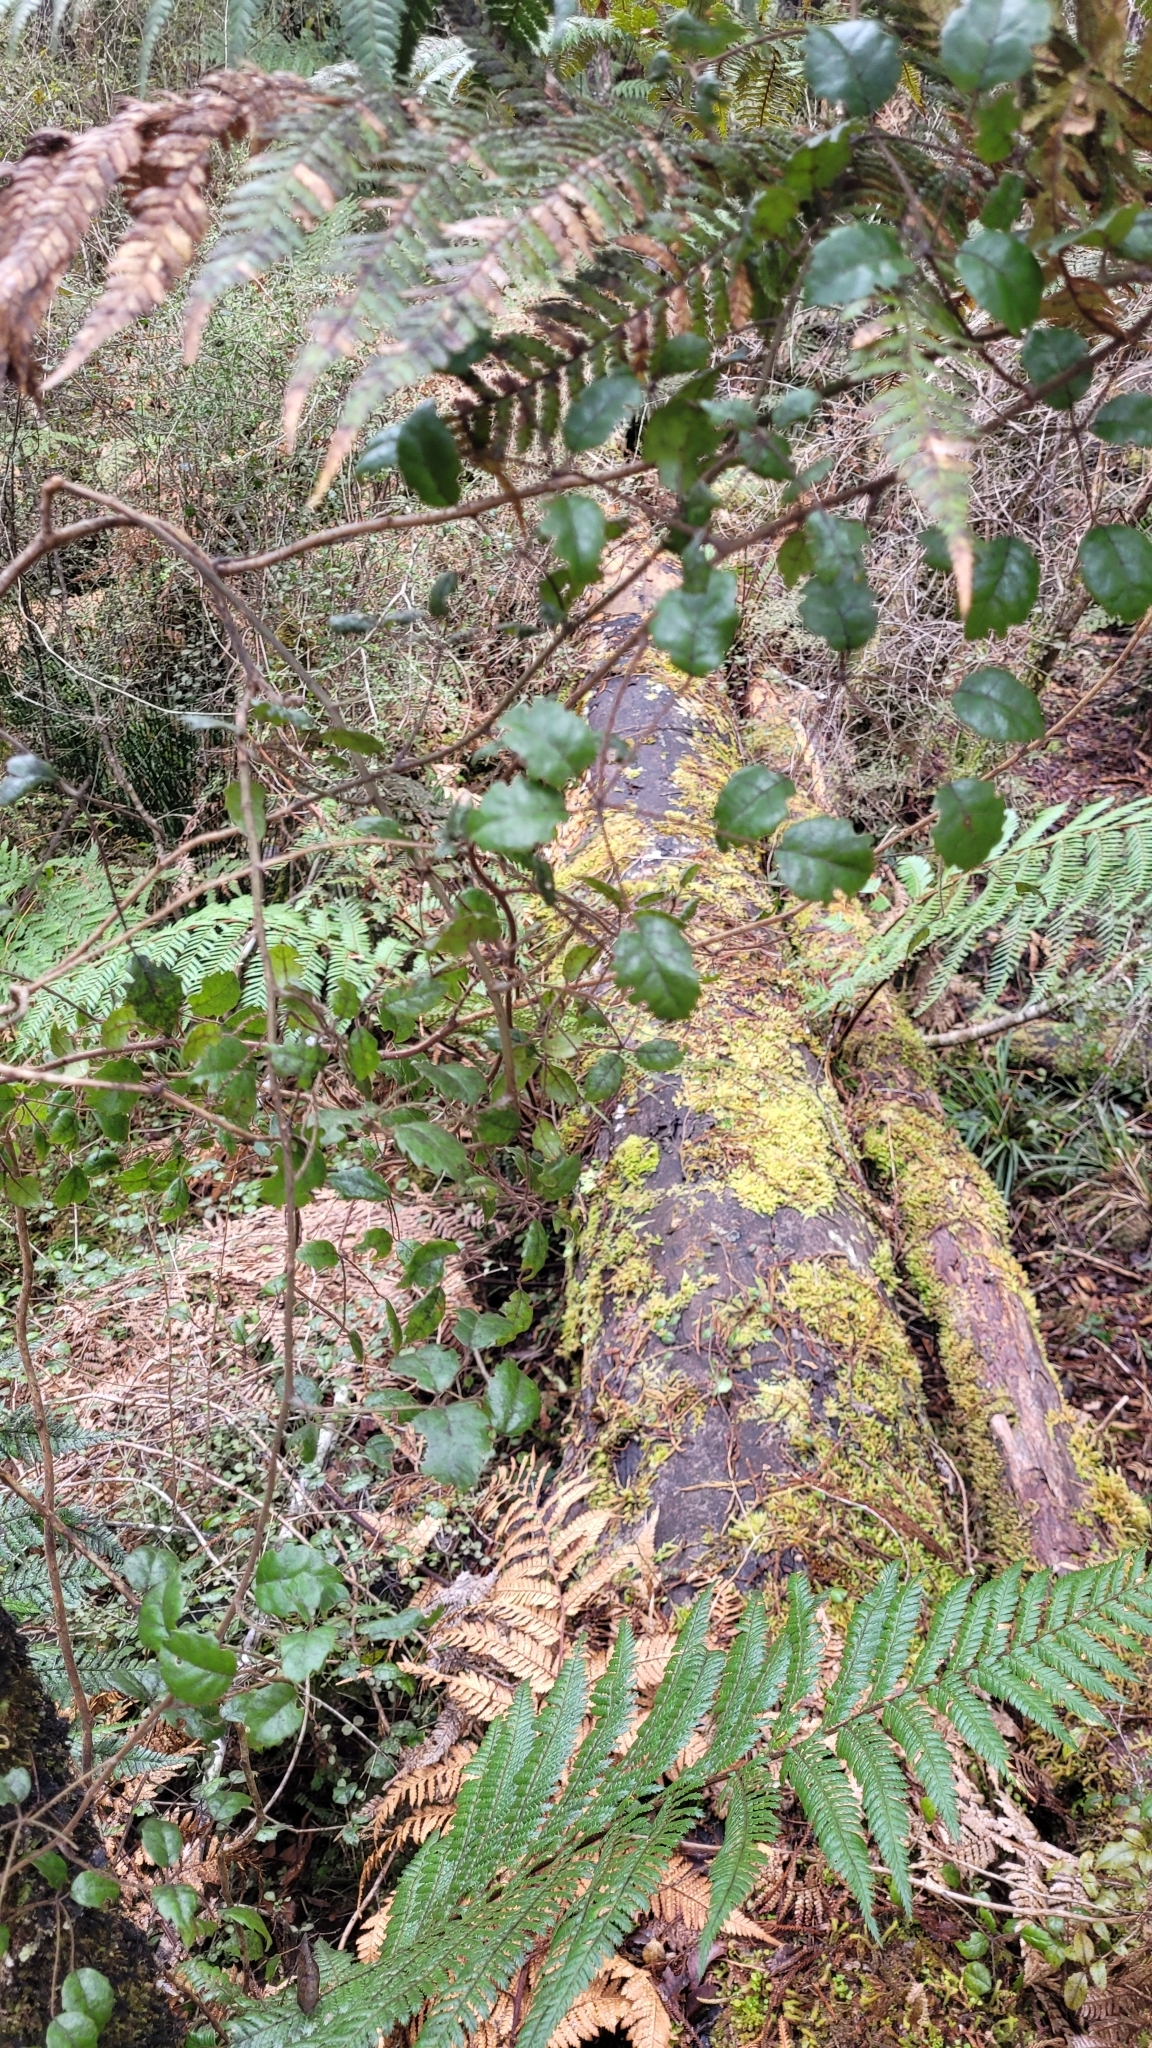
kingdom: Plantae
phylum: Tracheophyta
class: Magnoliopsida
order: Rosales
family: Rosaceae
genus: Rubus
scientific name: Rubus australis
